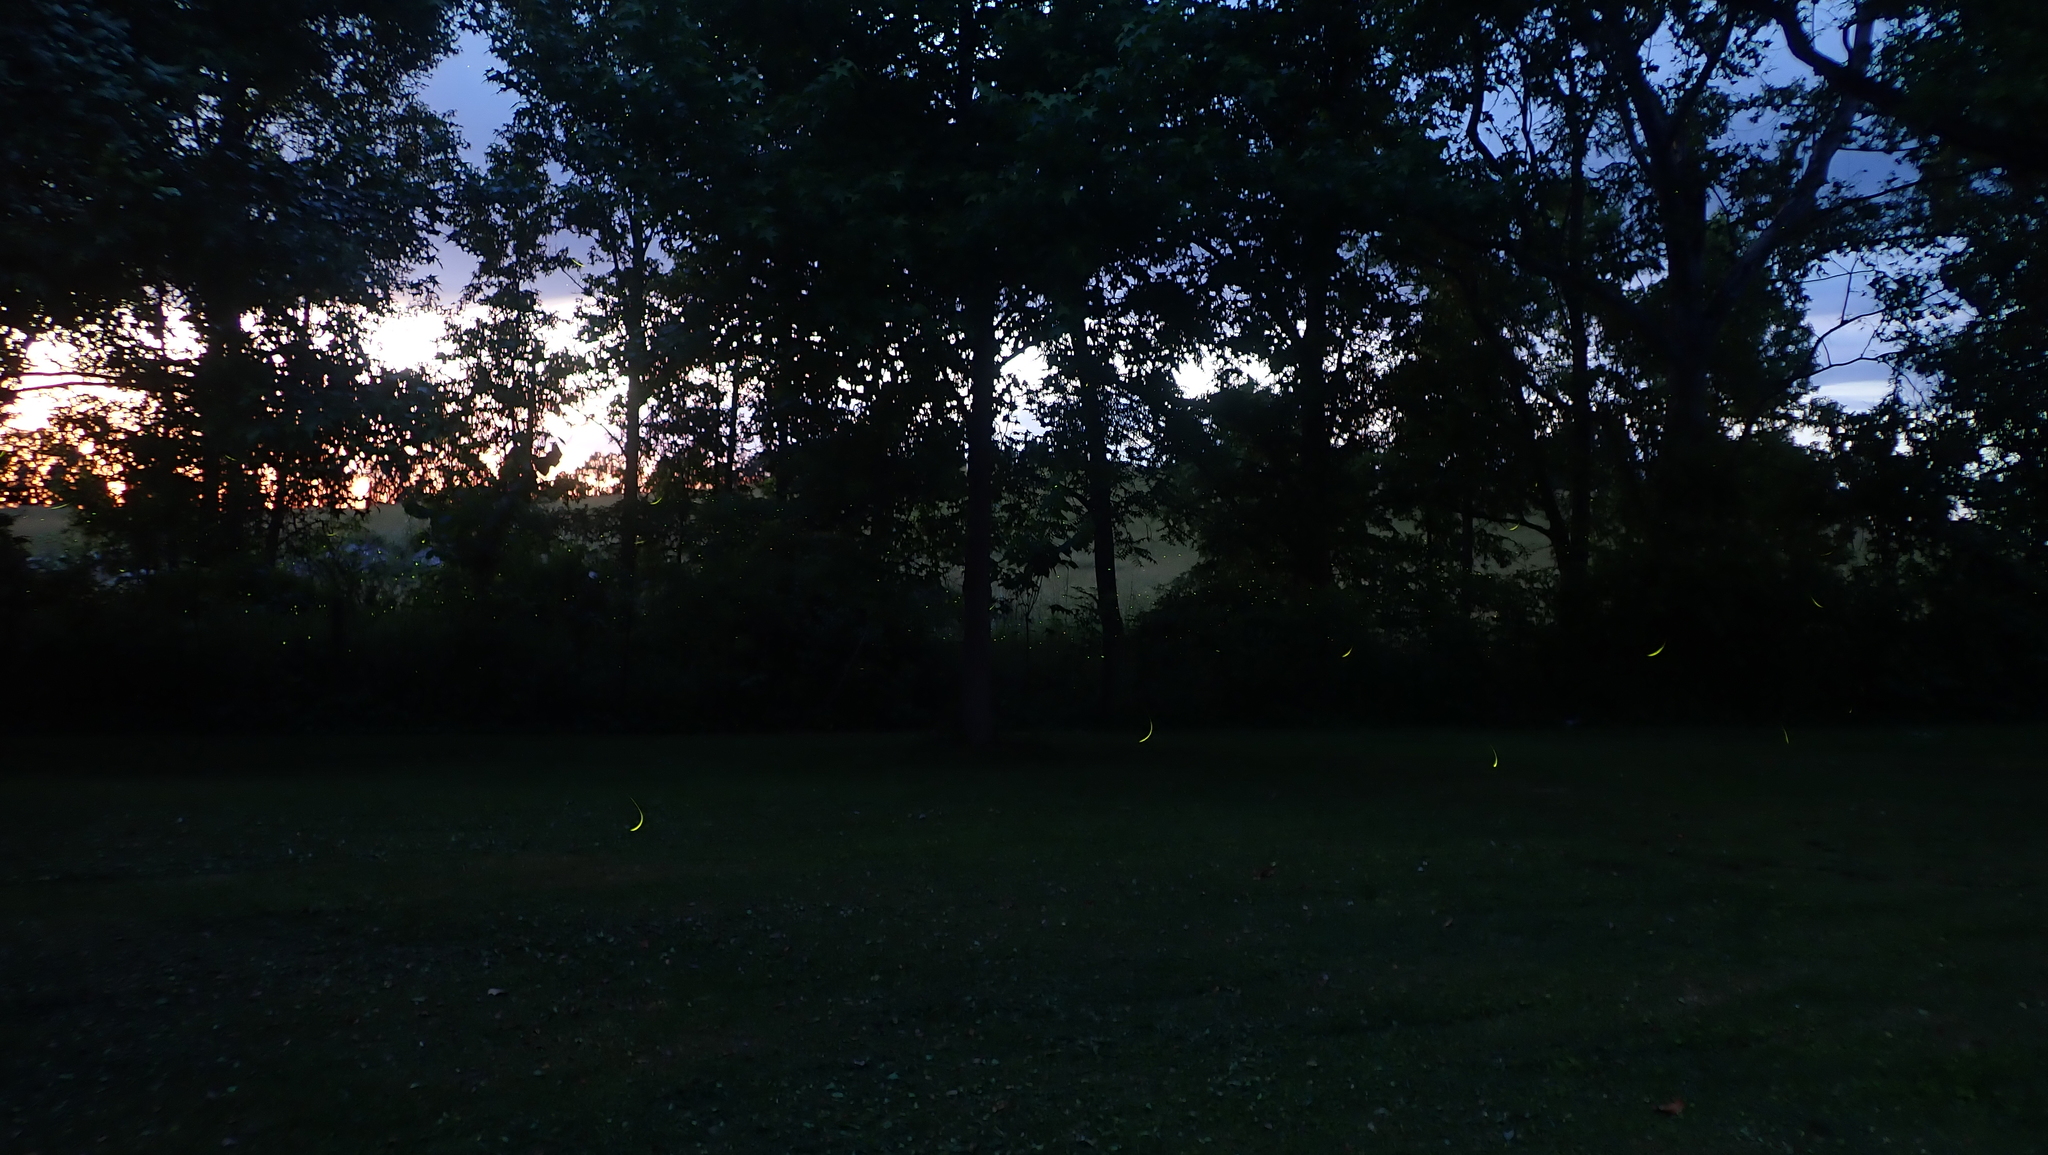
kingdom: Animalia
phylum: Arthropoda
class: Insecta
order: Coleoptera
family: Lampyridae
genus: Photinus
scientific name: Photinus pyralis
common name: Big dipper firefly
